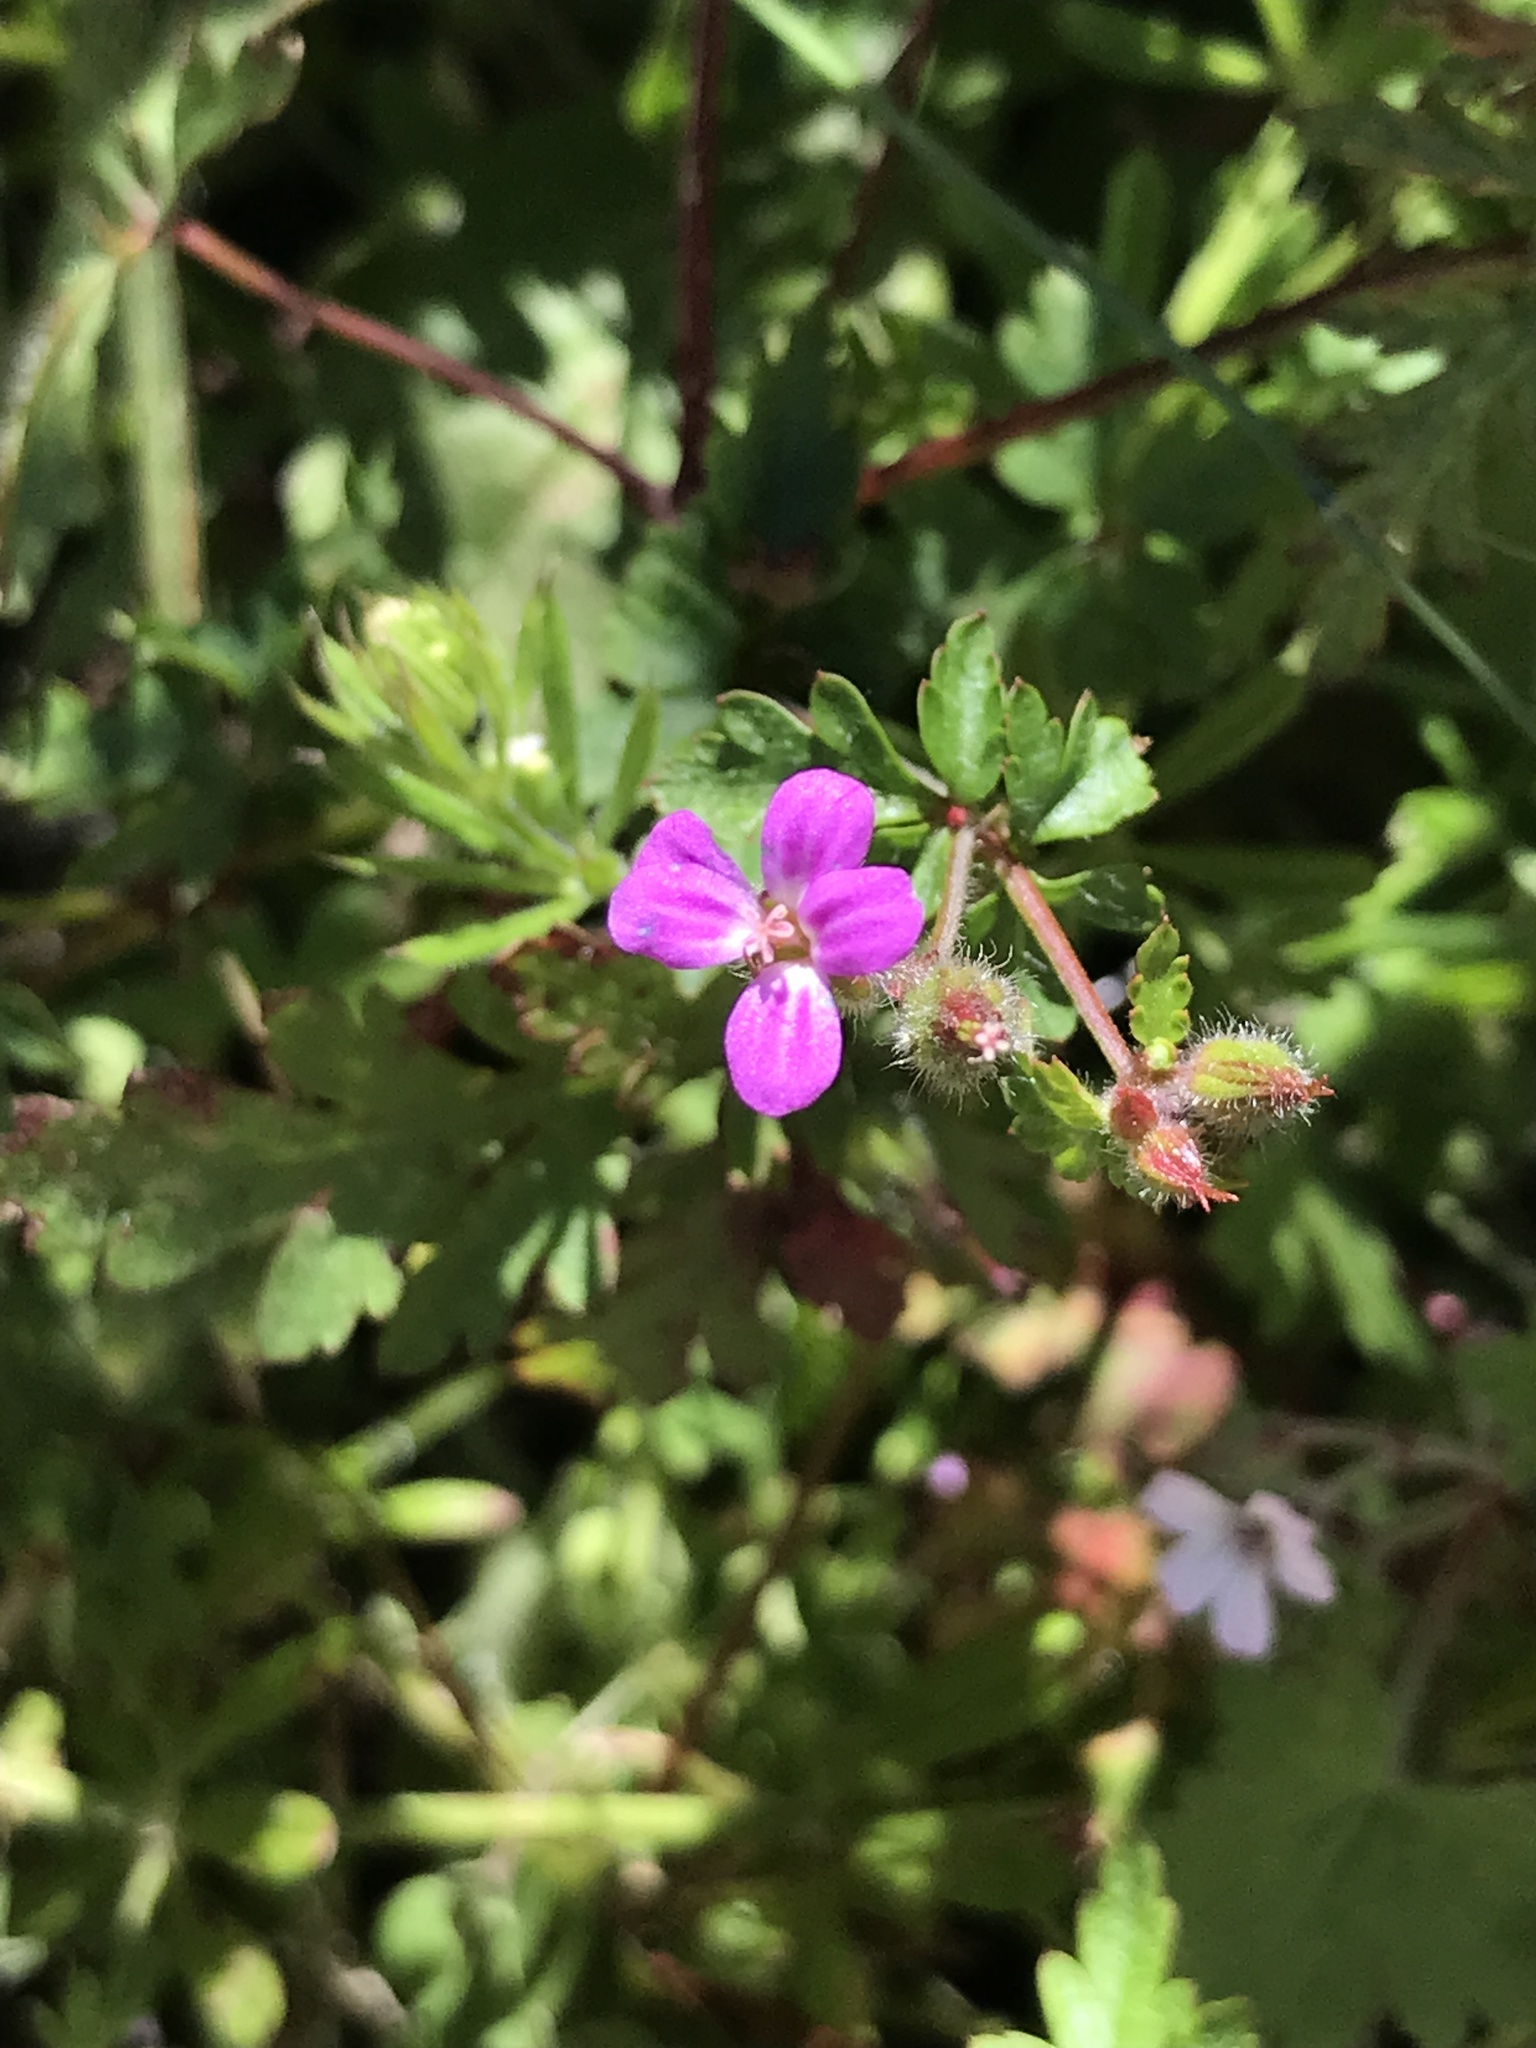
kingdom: Plantae
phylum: Tracheophyta
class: Magnoliopsida
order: Geraniales
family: Geraniaceae
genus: Geranium
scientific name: Geranium purpureum
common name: Little-robin
